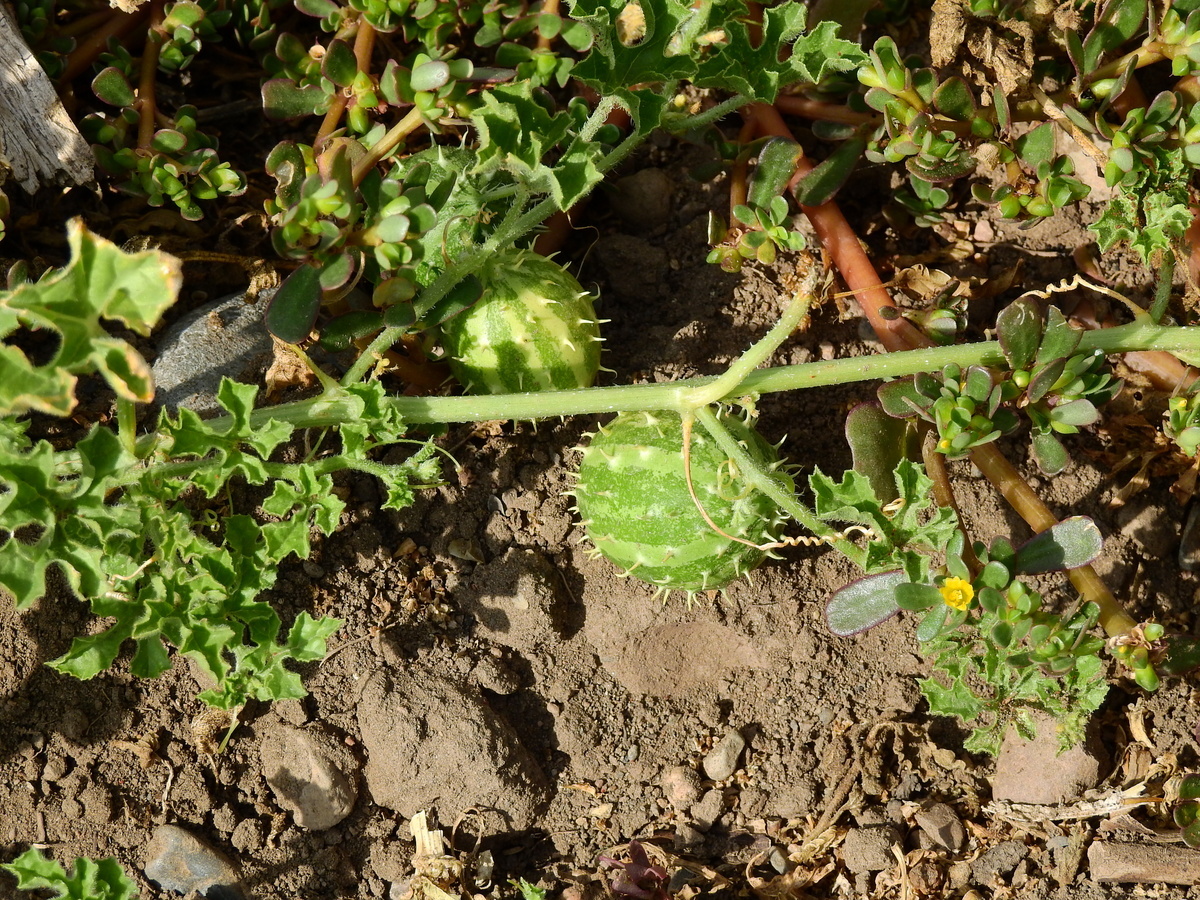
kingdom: Plantae
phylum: Tracheophyta
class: Magnoliopsida
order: Cucurbitales
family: Cucurbitaceae
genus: Cucumis
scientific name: Cucumis anguria
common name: West indian gherkin
